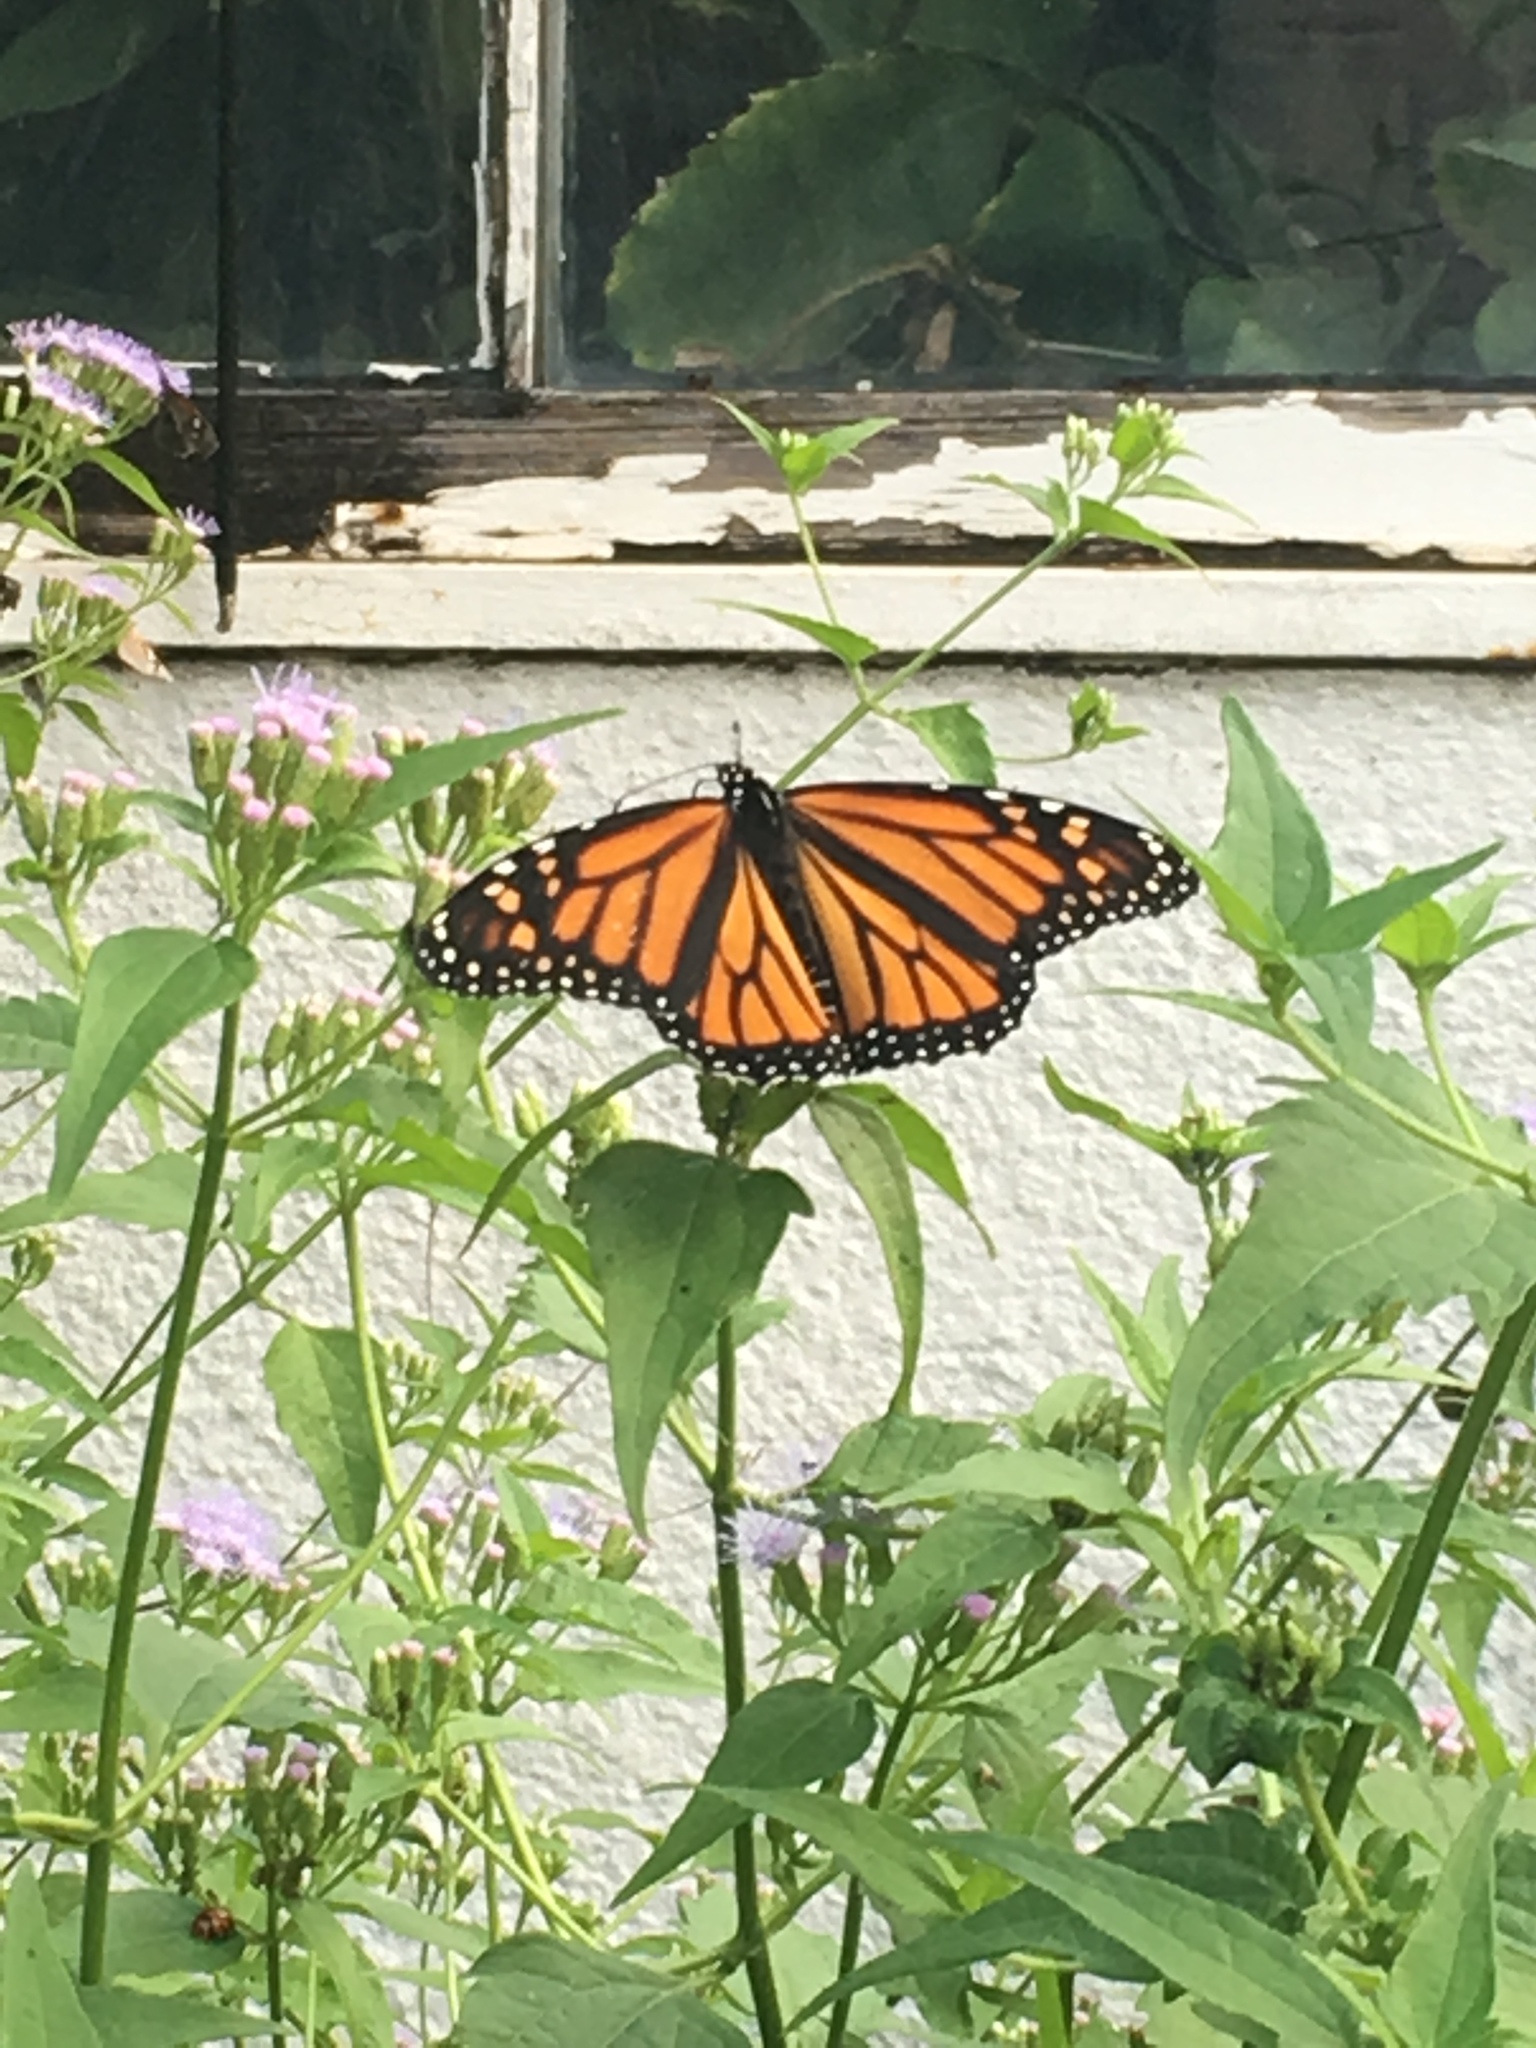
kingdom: Animalia
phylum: Arthropoda
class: Insecta
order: Lepidoptera
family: Nymphalidae
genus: Danaus
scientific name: Danaus plexippus
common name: Monarch
